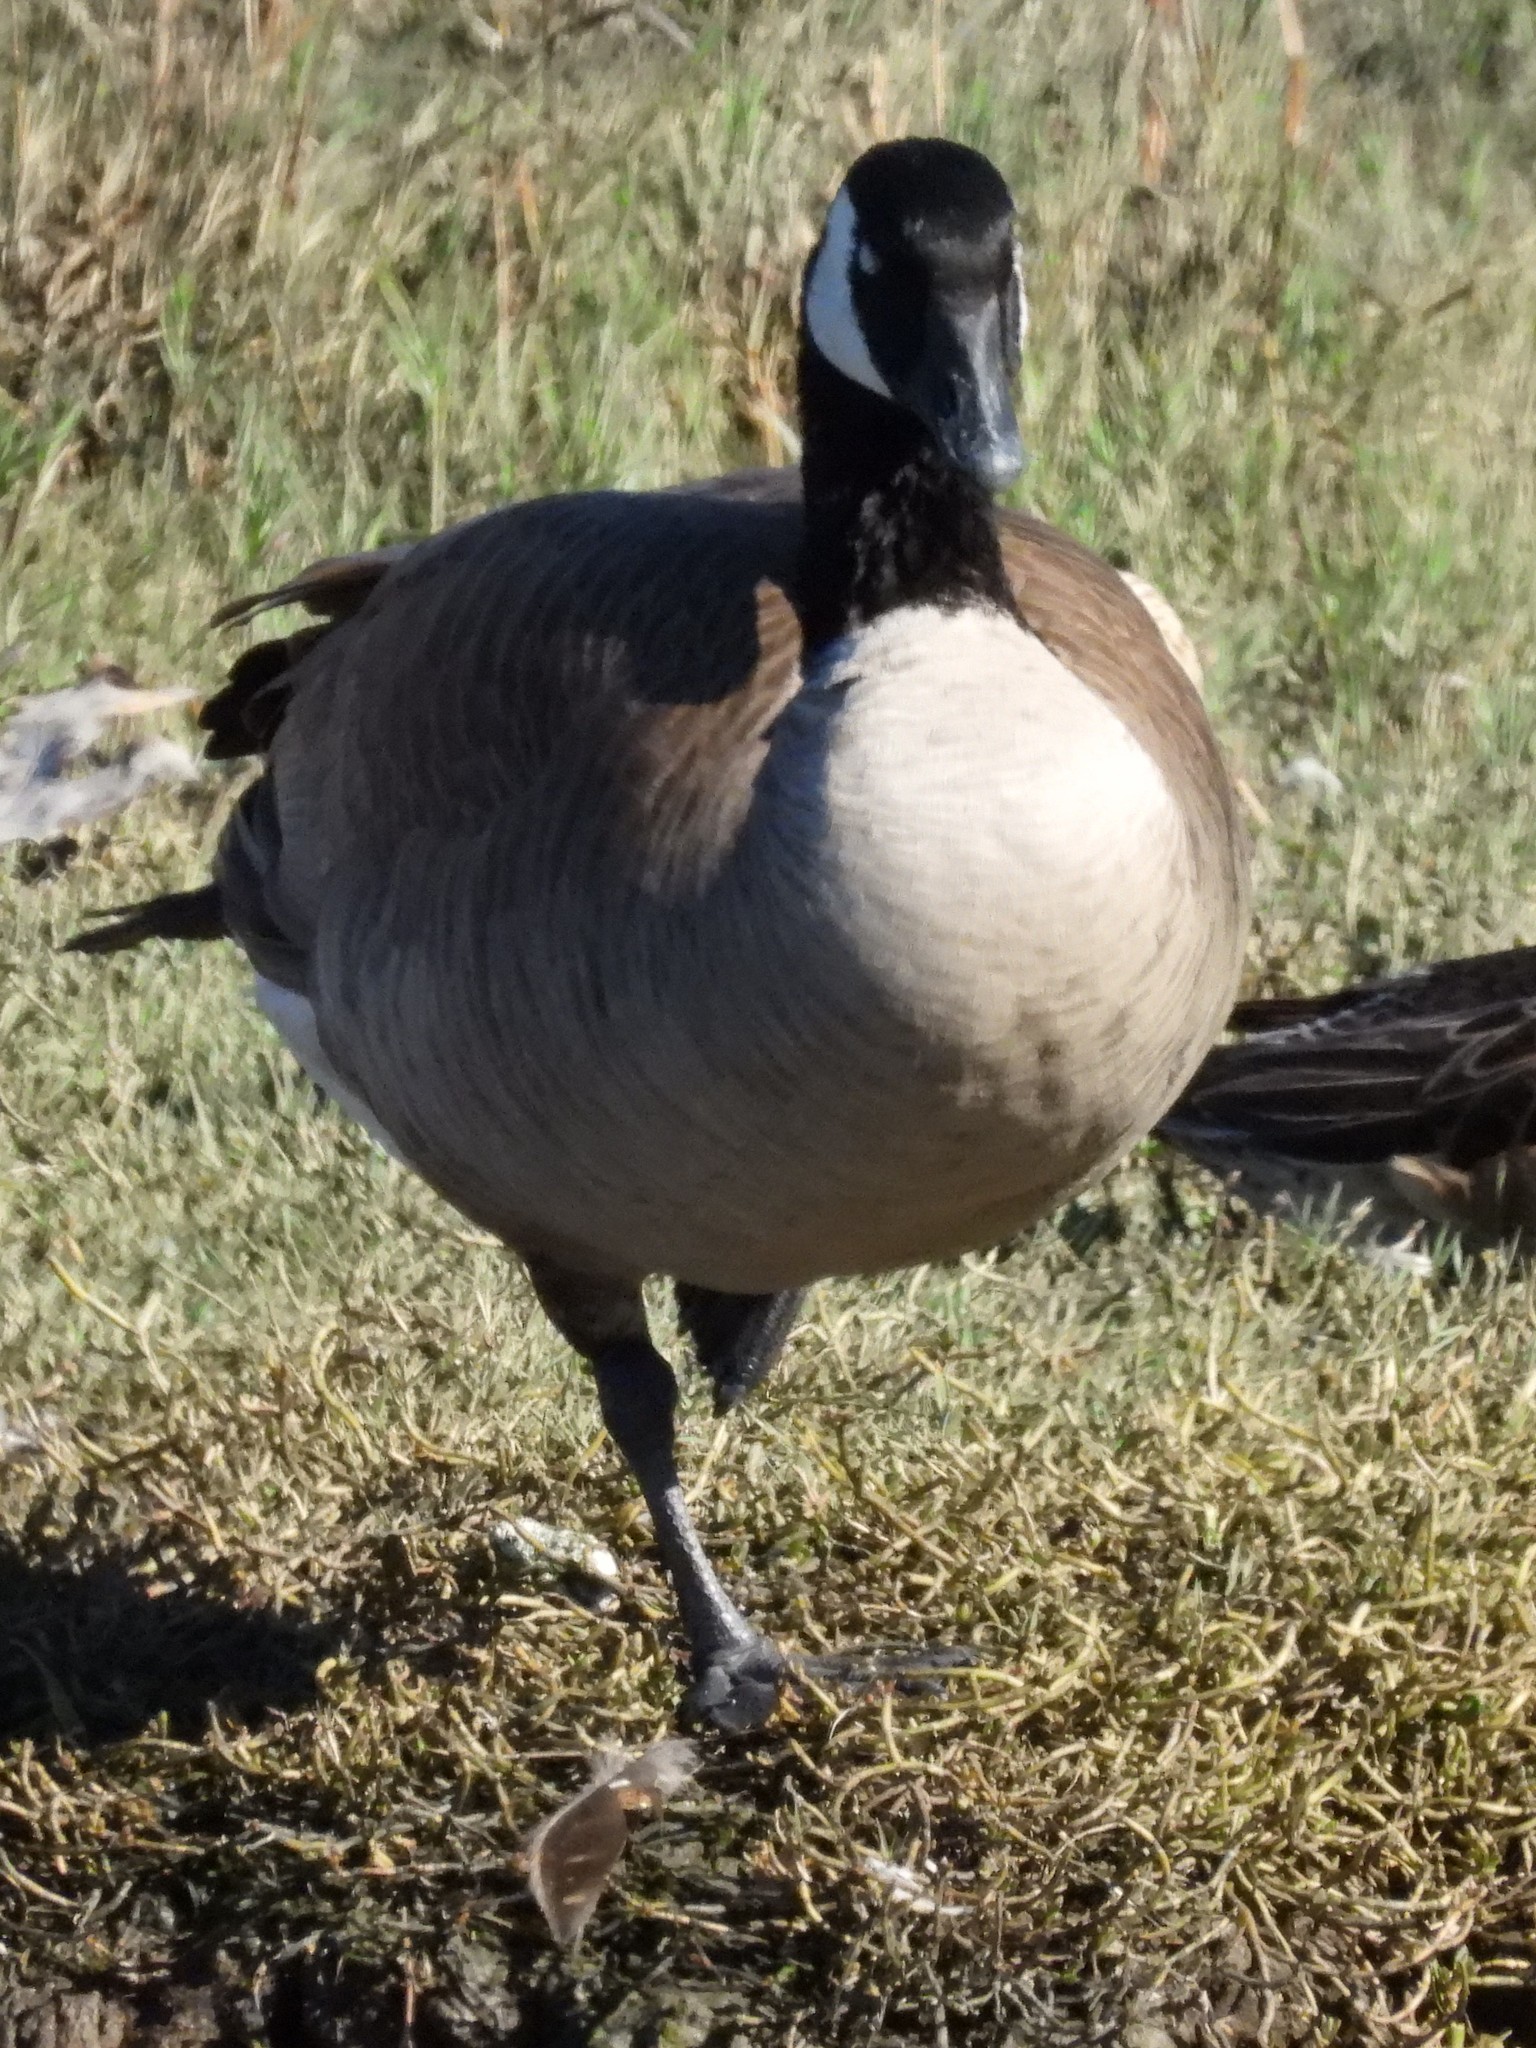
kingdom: Animalia
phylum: Chordata
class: Aves
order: Anseriformes
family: Anatidae
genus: Branta
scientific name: Branta canadensis
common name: Canada goose
